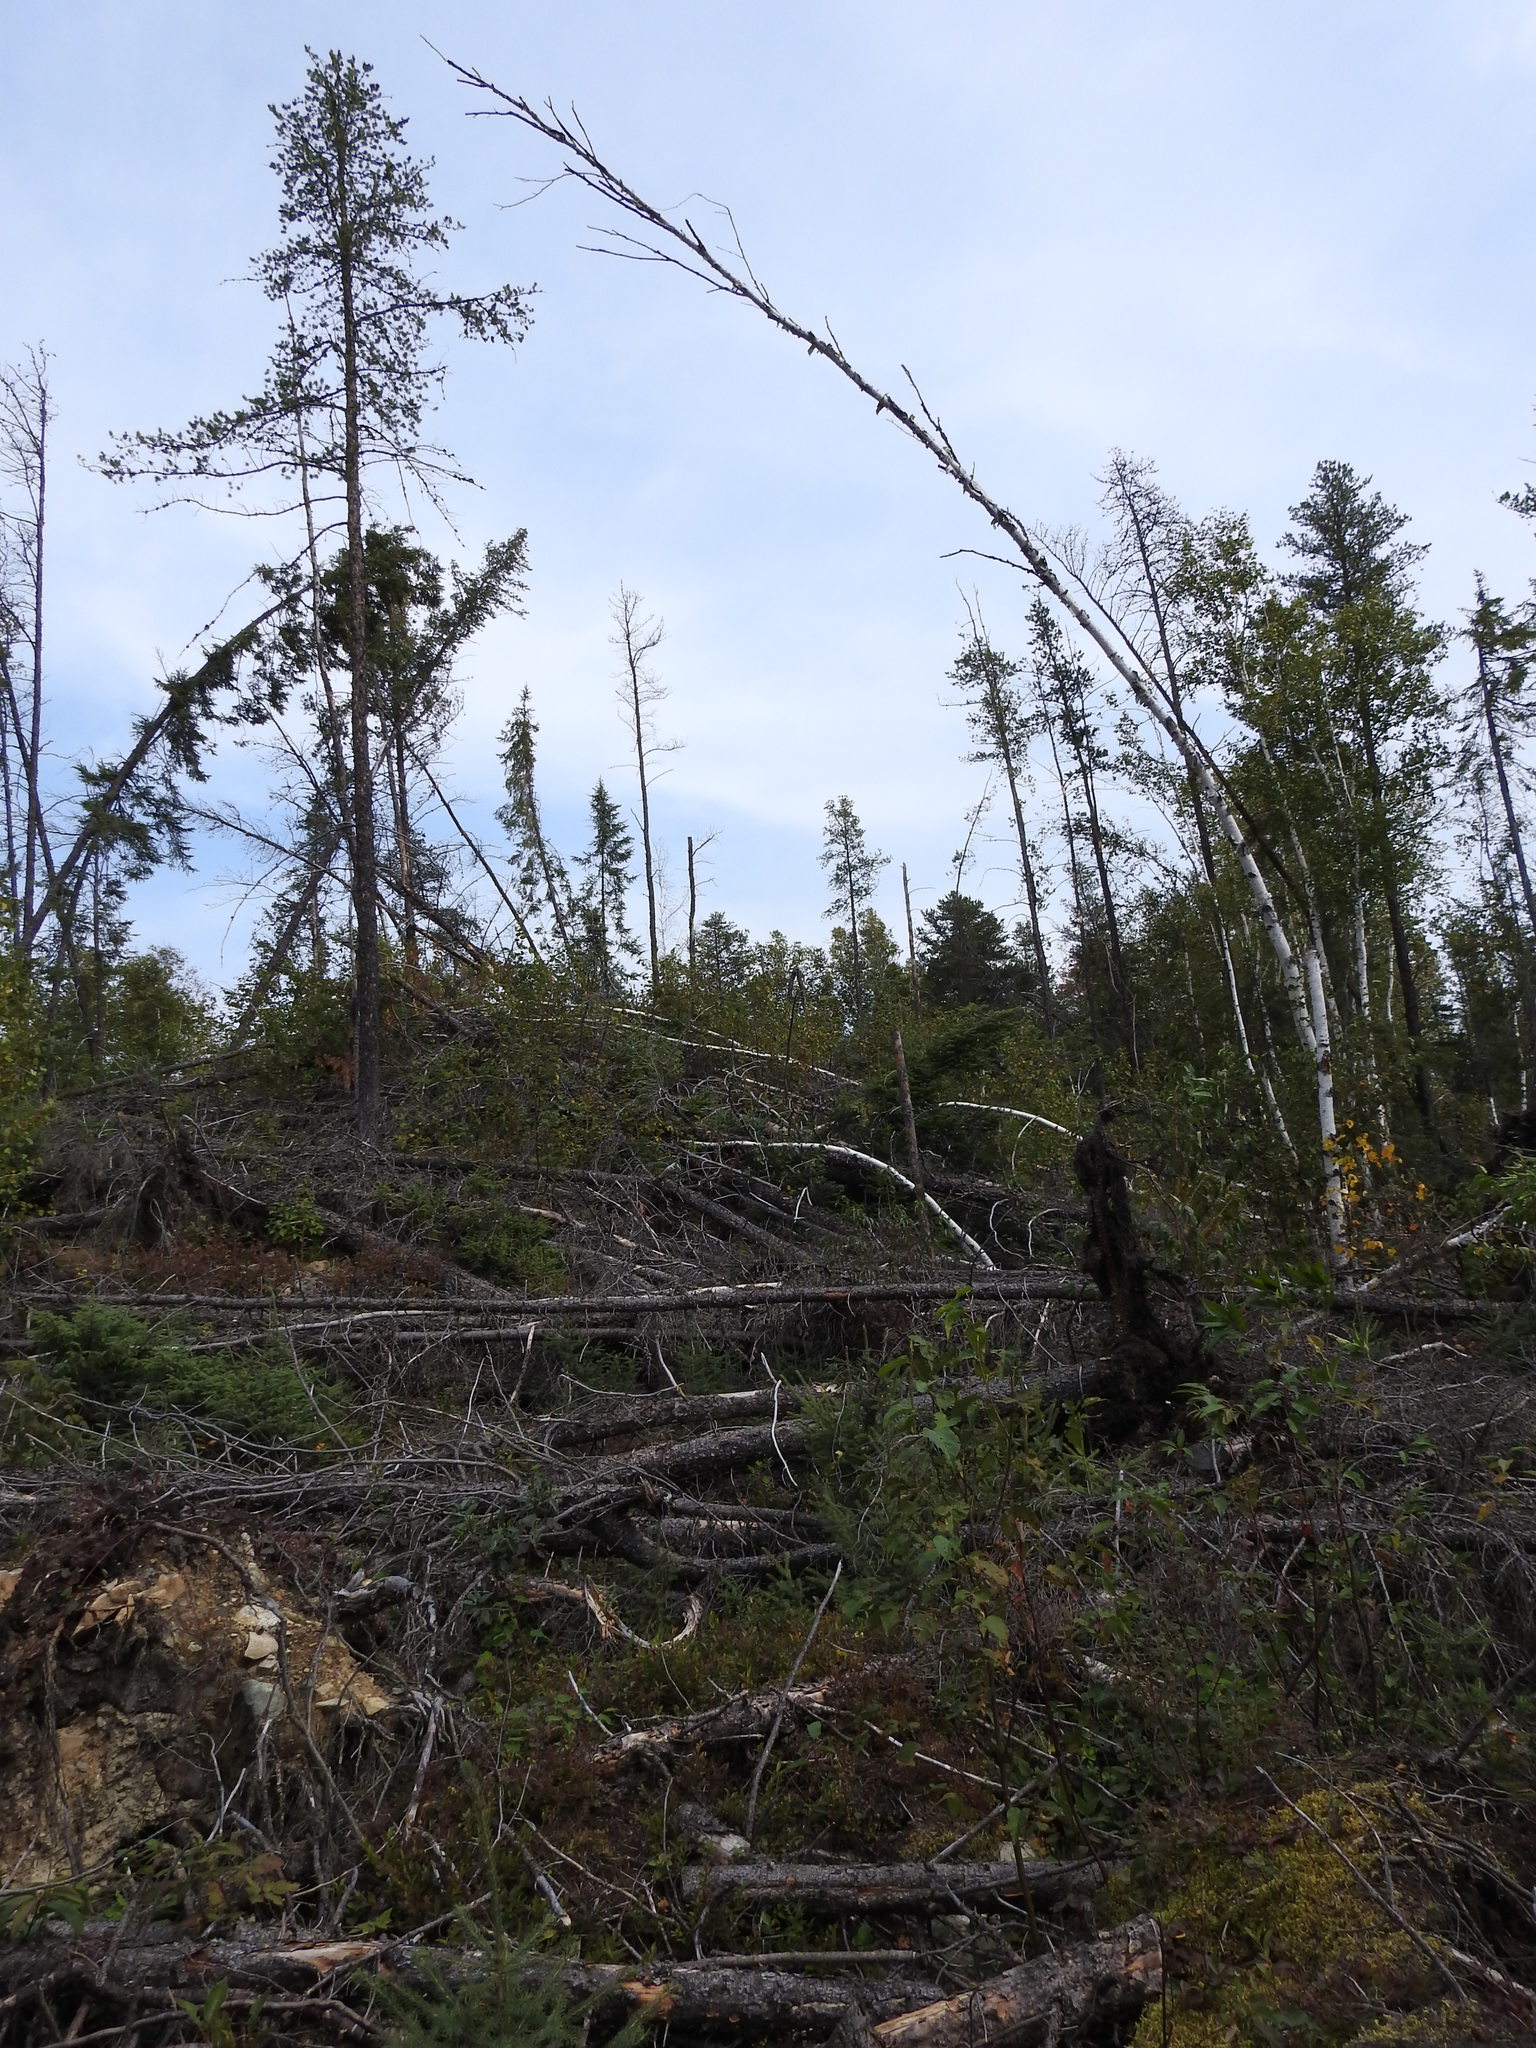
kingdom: Plantae
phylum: Tracheophyta
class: Pinopsida
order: Pinales
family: Pinaceae
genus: Pinus
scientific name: Pinus banksiana
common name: Jack pine
